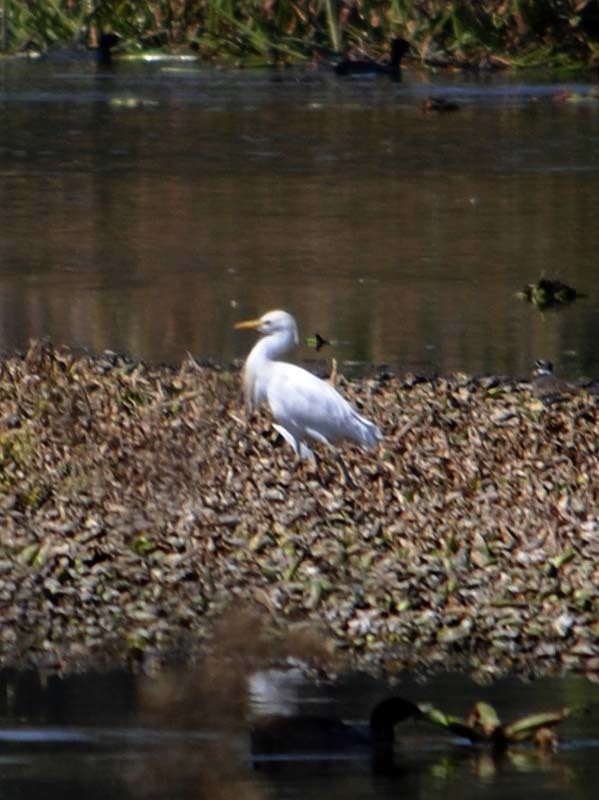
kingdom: Animalia
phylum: Chordata
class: Aves
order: Pelecaniformes
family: Ardeidae
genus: Bubulcus
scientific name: Bubulcus ibis
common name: Cattle egret
